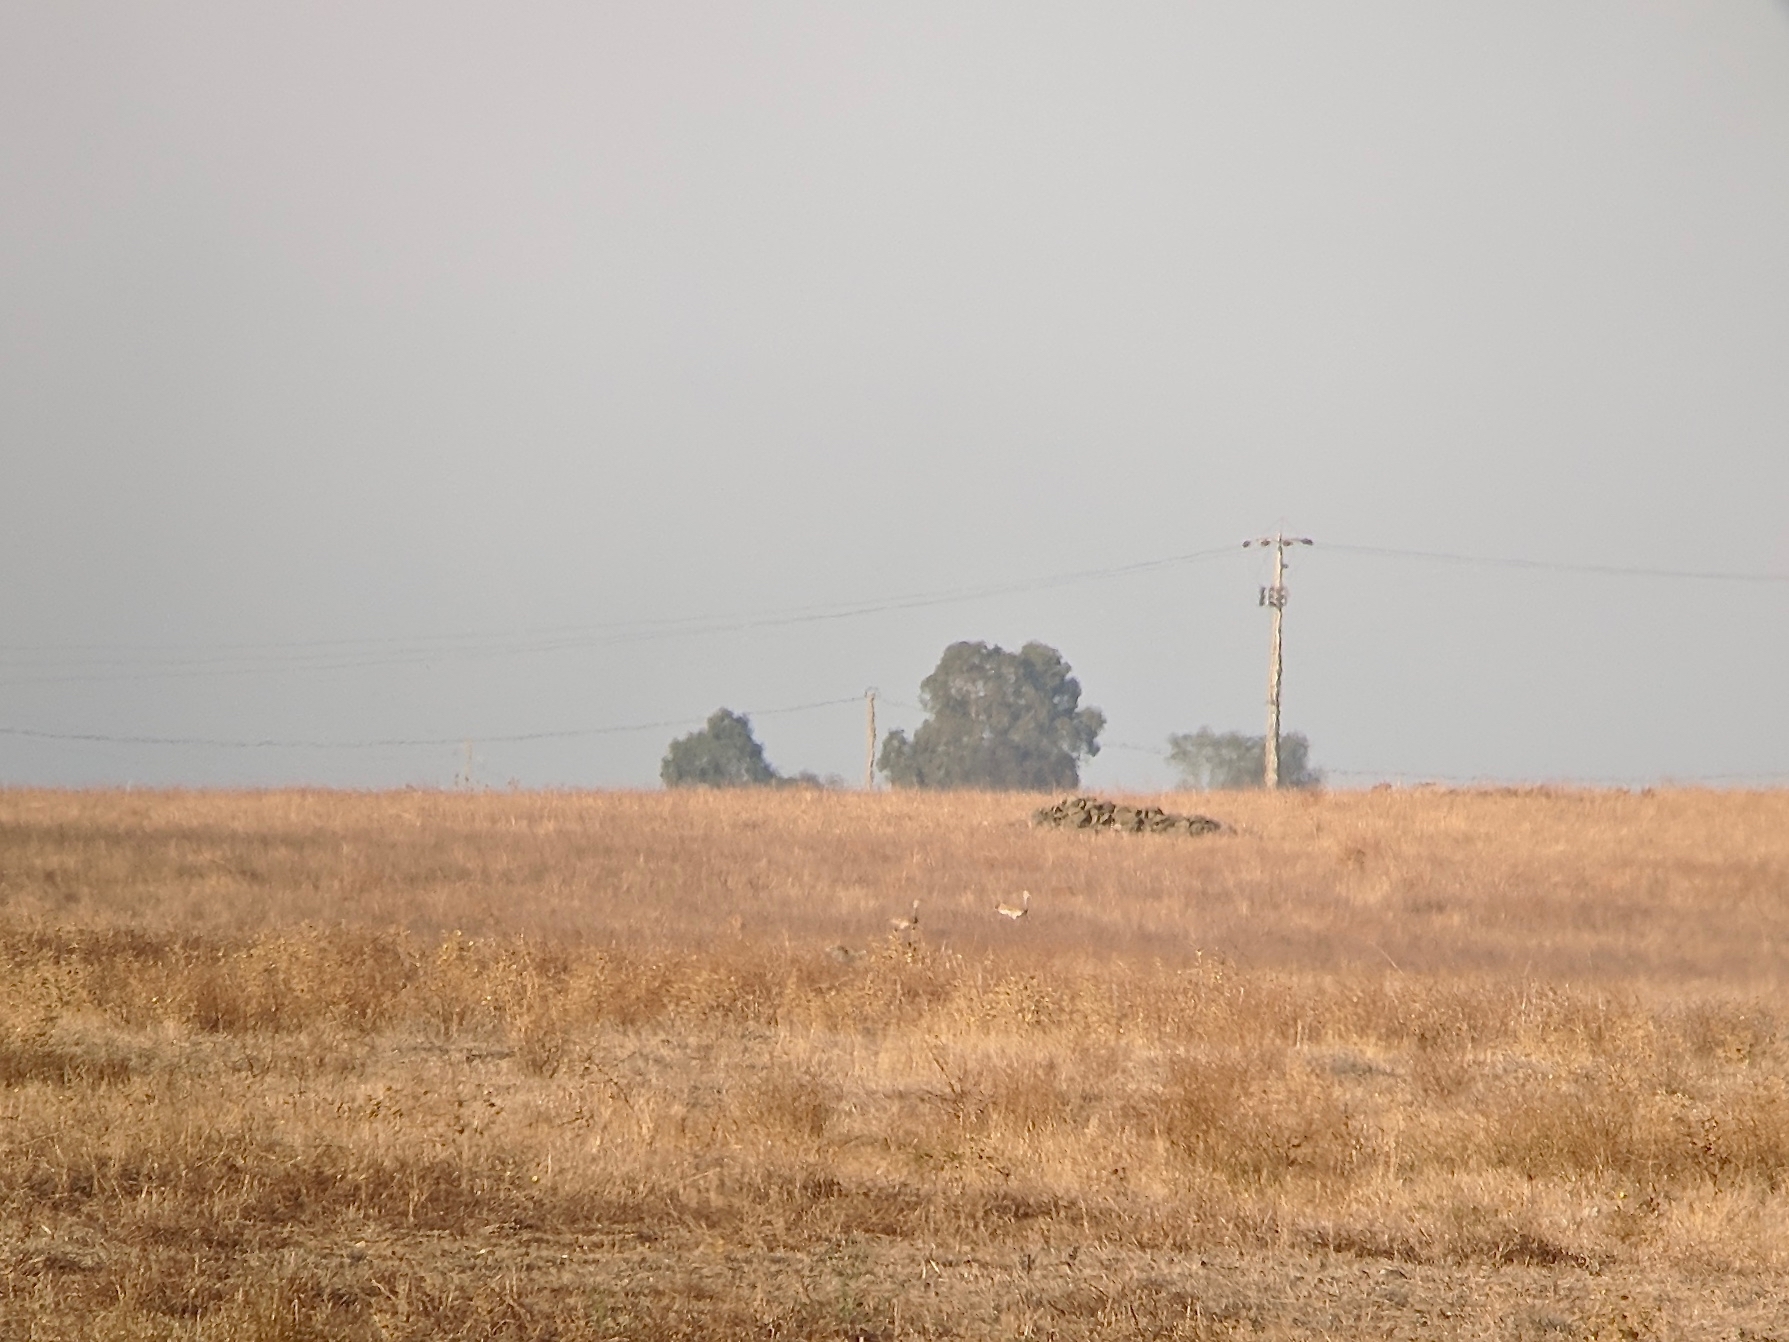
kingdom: Animalia
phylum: Chordata
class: Aves
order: Otidiformes
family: Otididae
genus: Otis
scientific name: Otis tarda
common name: Great bustard
